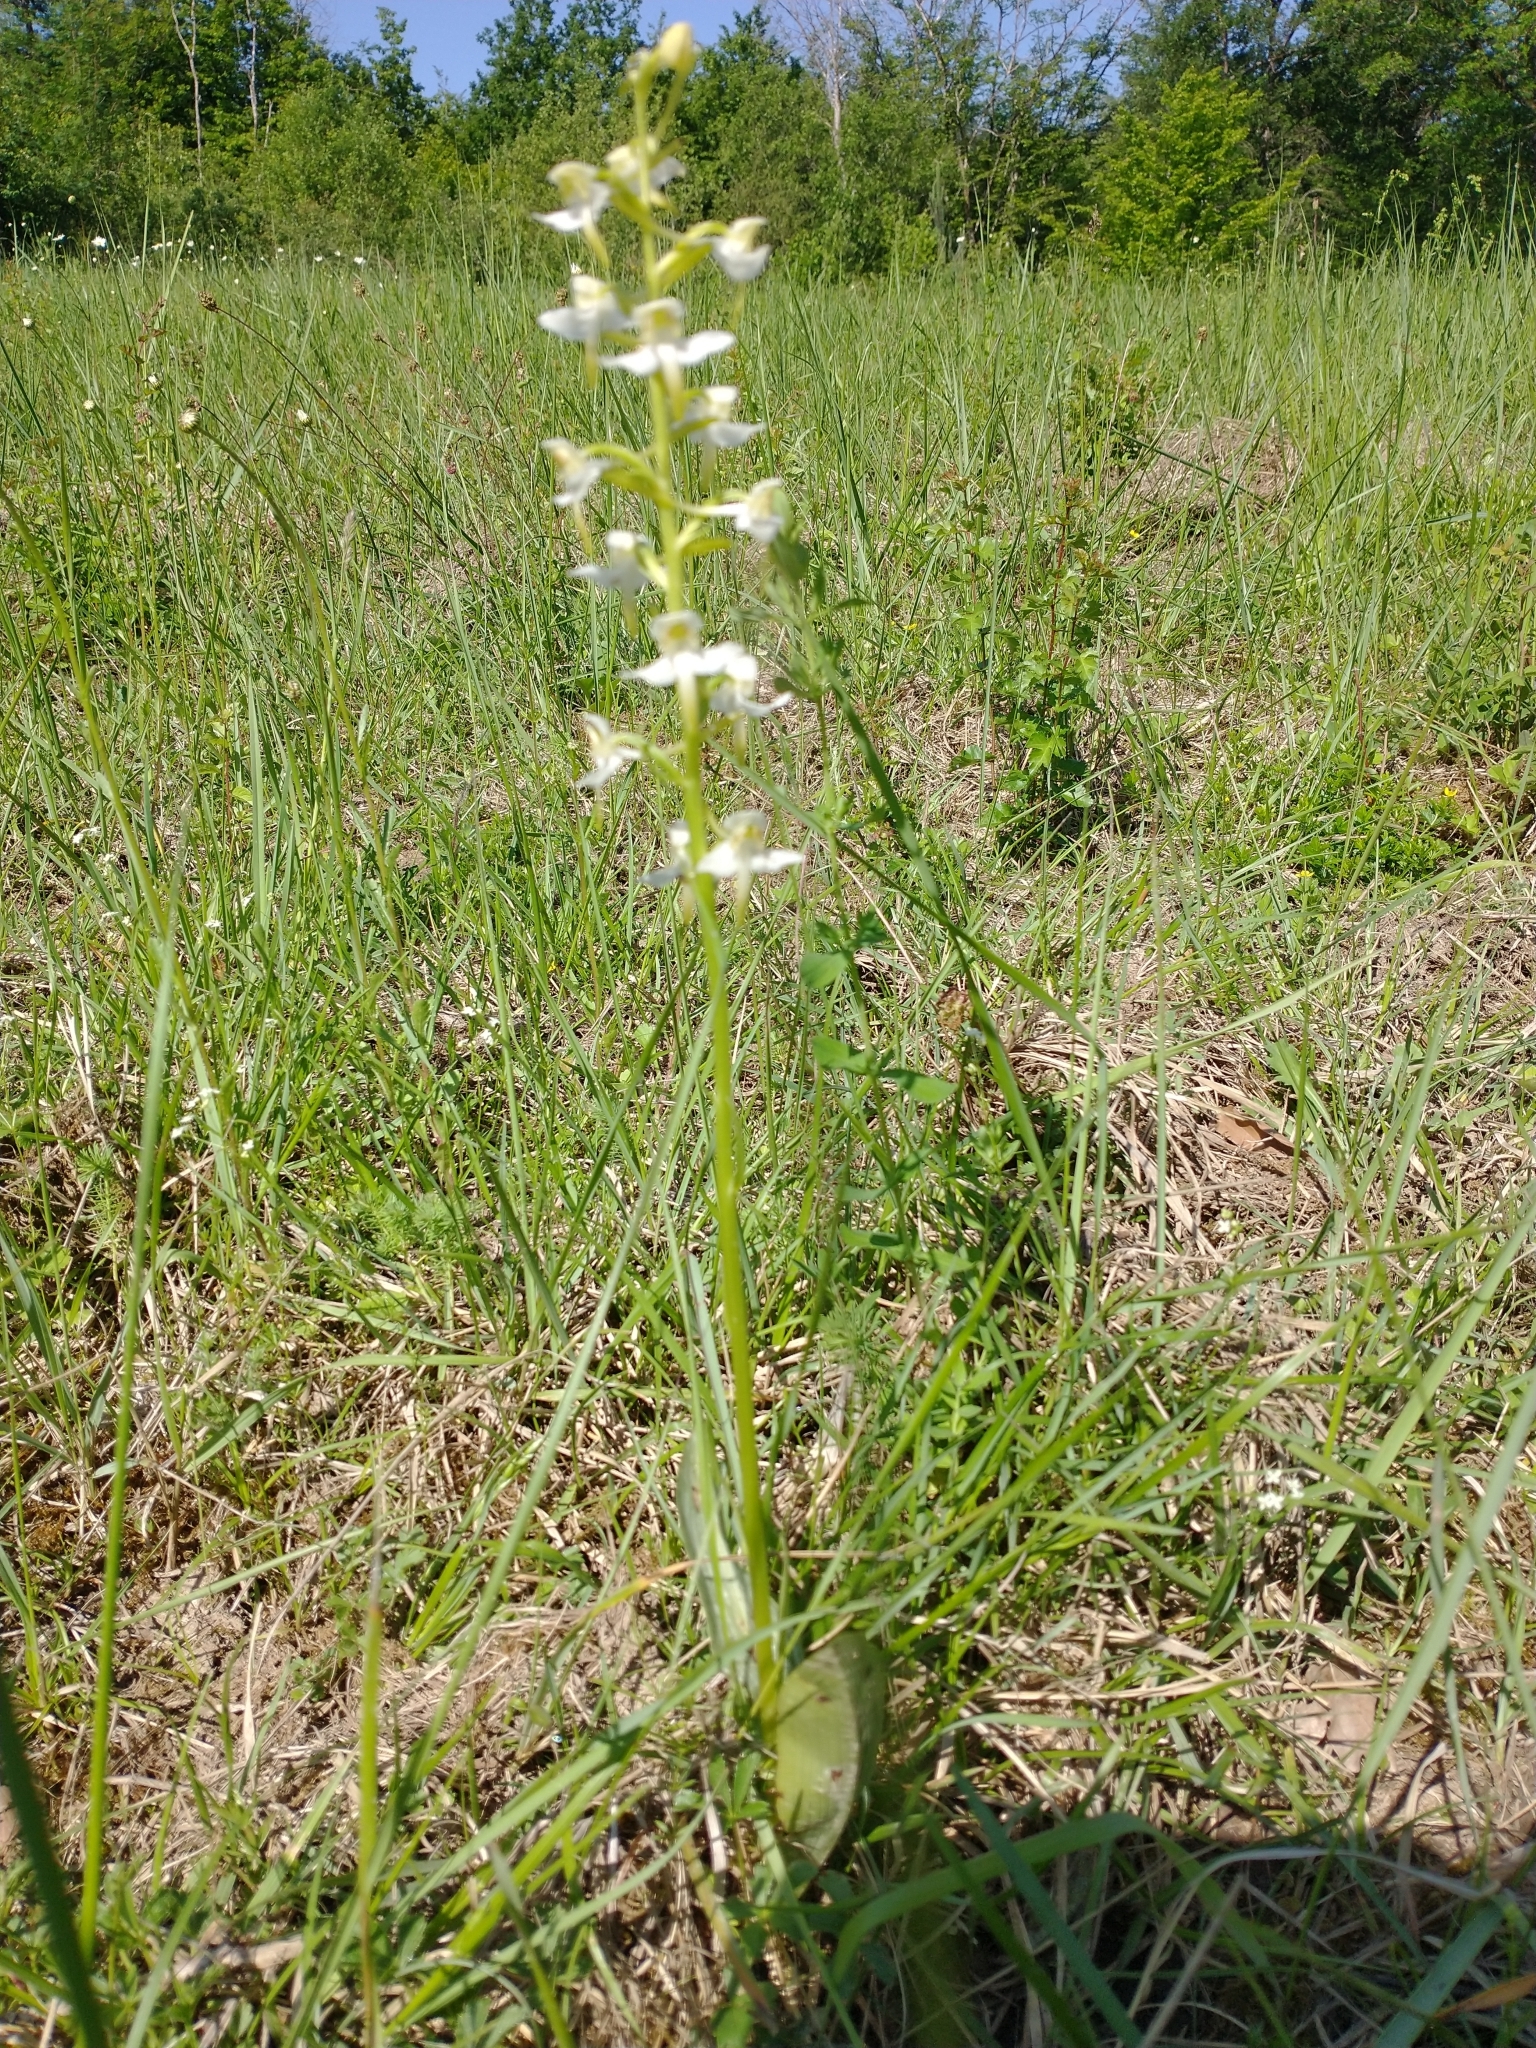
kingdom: Plantae
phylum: Tracheophyta
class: Liliopsida
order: Asparagales
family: Orchidaceae
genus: Platanthera
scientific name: Platanthera chlorantha
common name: Greater butterfly-orchid
